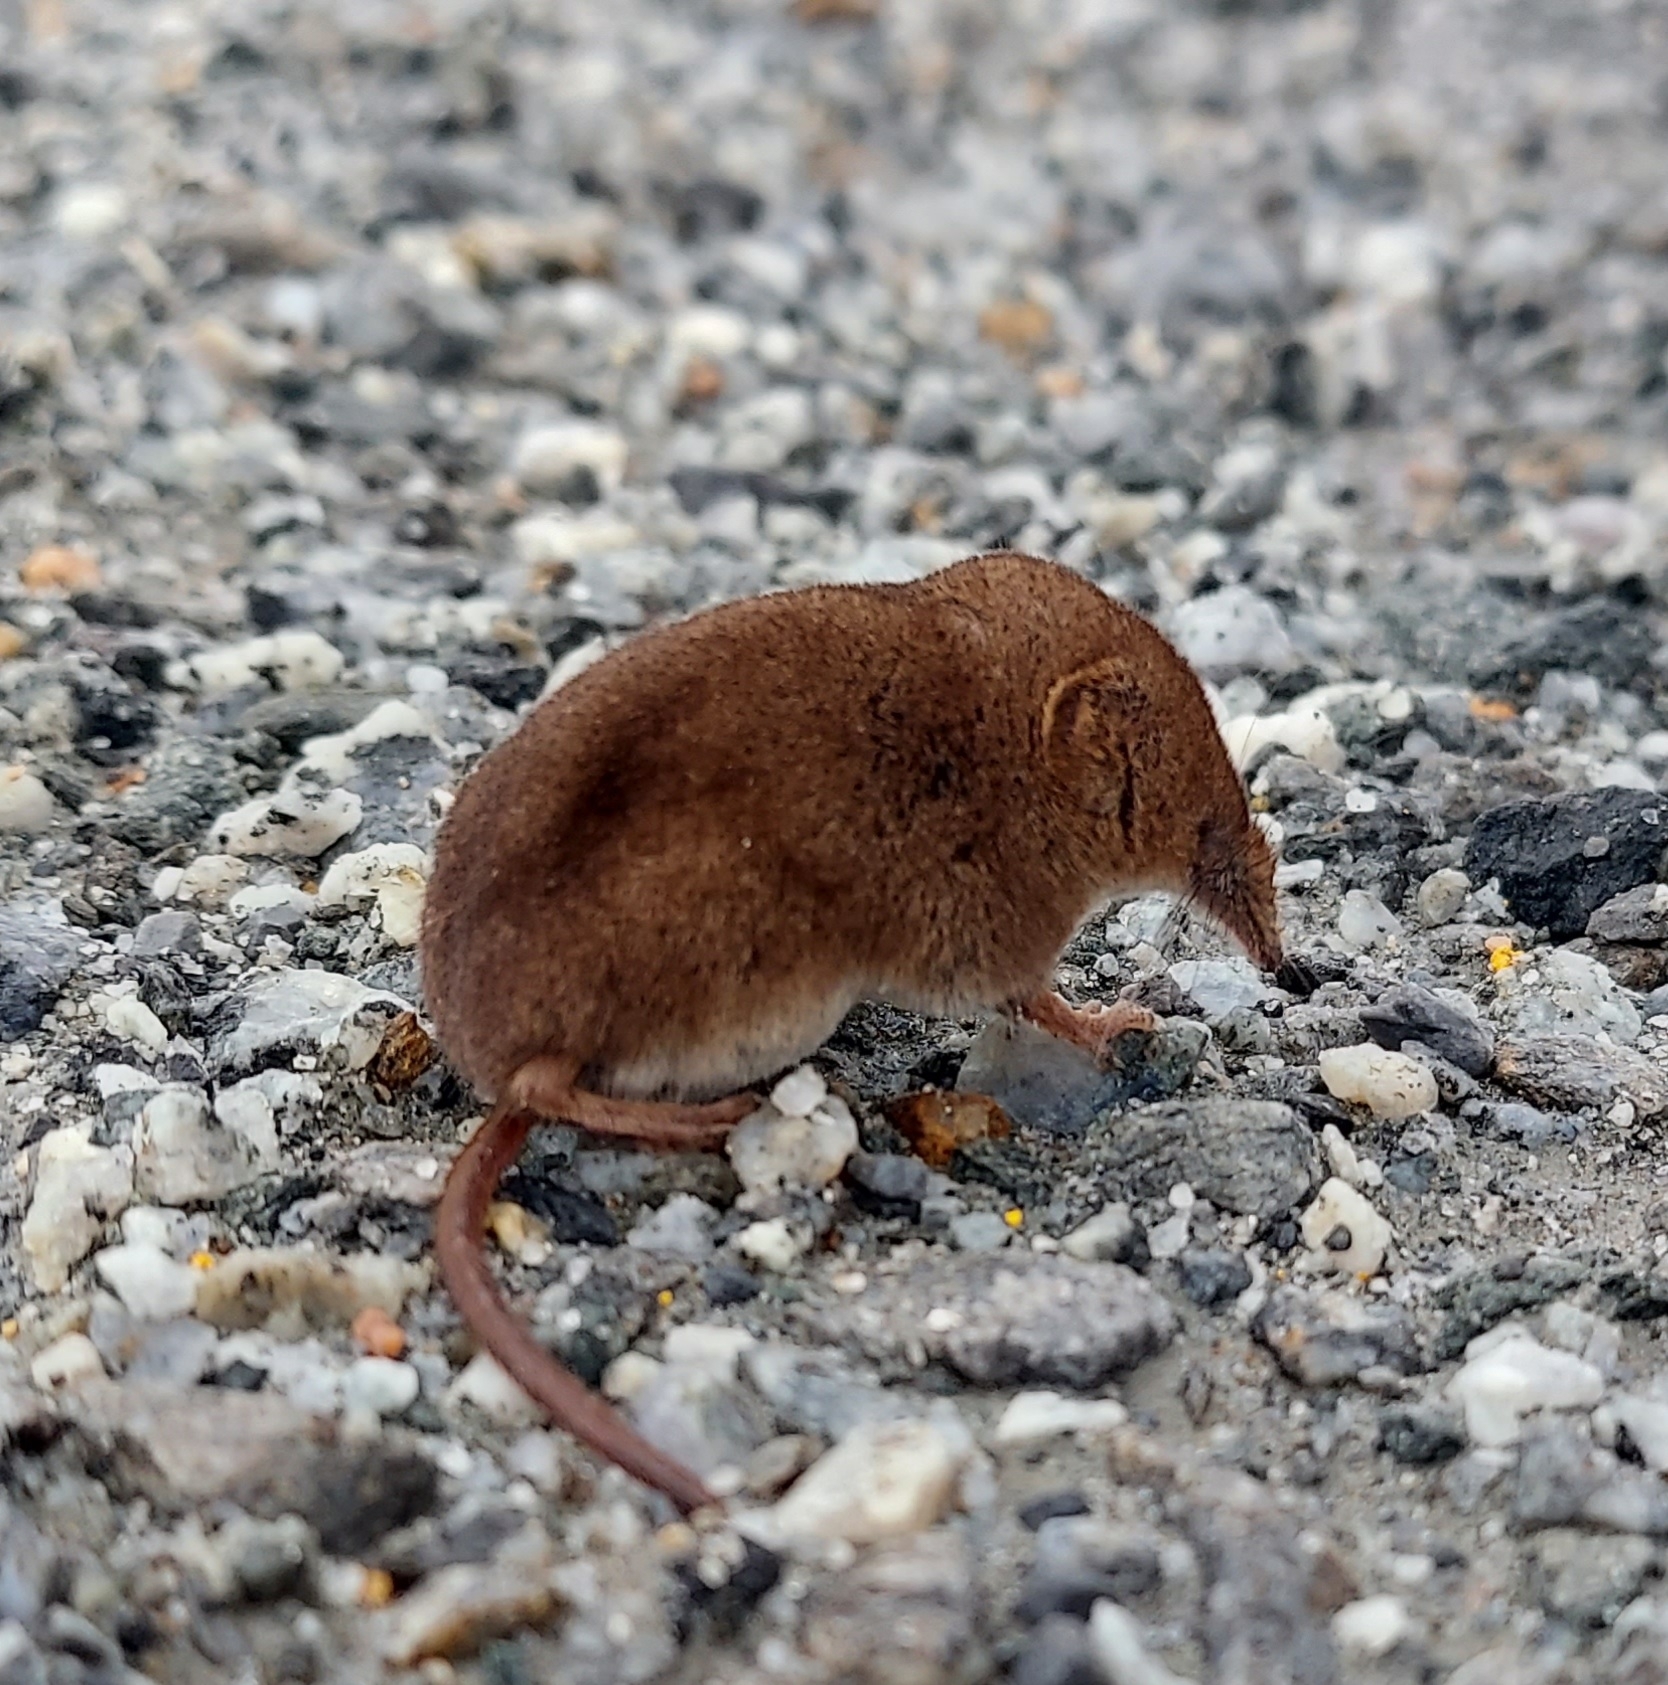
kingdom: Animalia
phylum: Chordata
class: Mammalia
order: Soricomorpha
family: Soricidae
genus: Sorex
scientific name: Sorex cinereus
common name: Cinereus shrew
